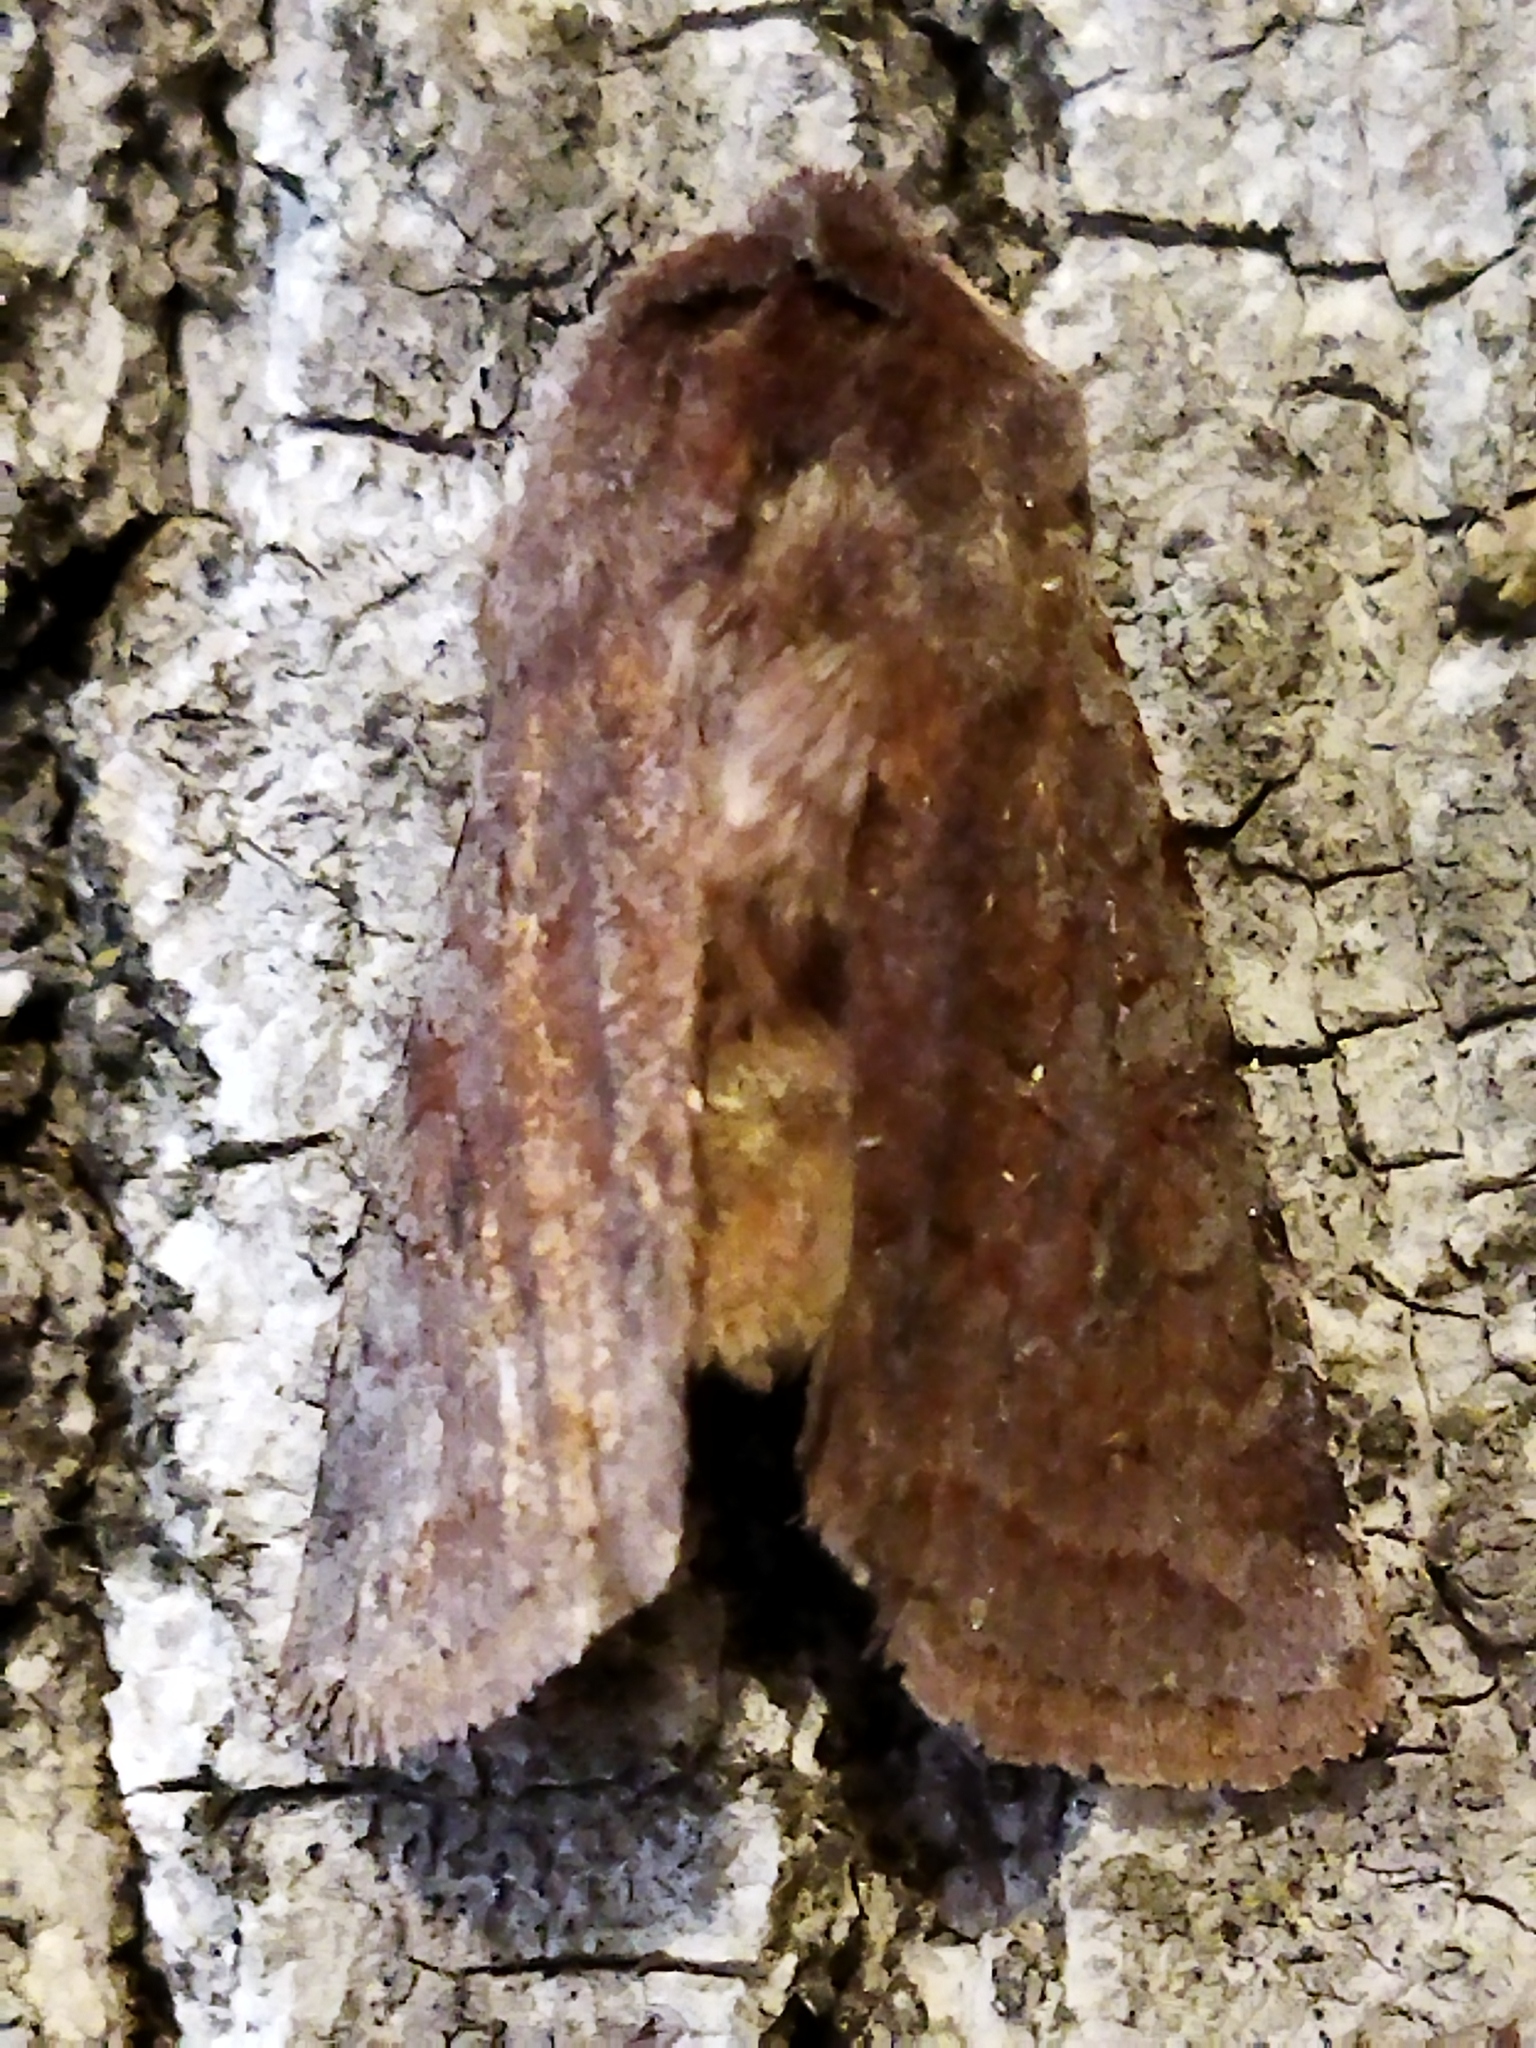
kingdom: Animalia
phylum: Arthropoda
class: Insecta
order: Lepidoptera
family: Noctuidae
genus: Cerastis
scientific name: Cerastis rubricosa
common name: Red chestnut
